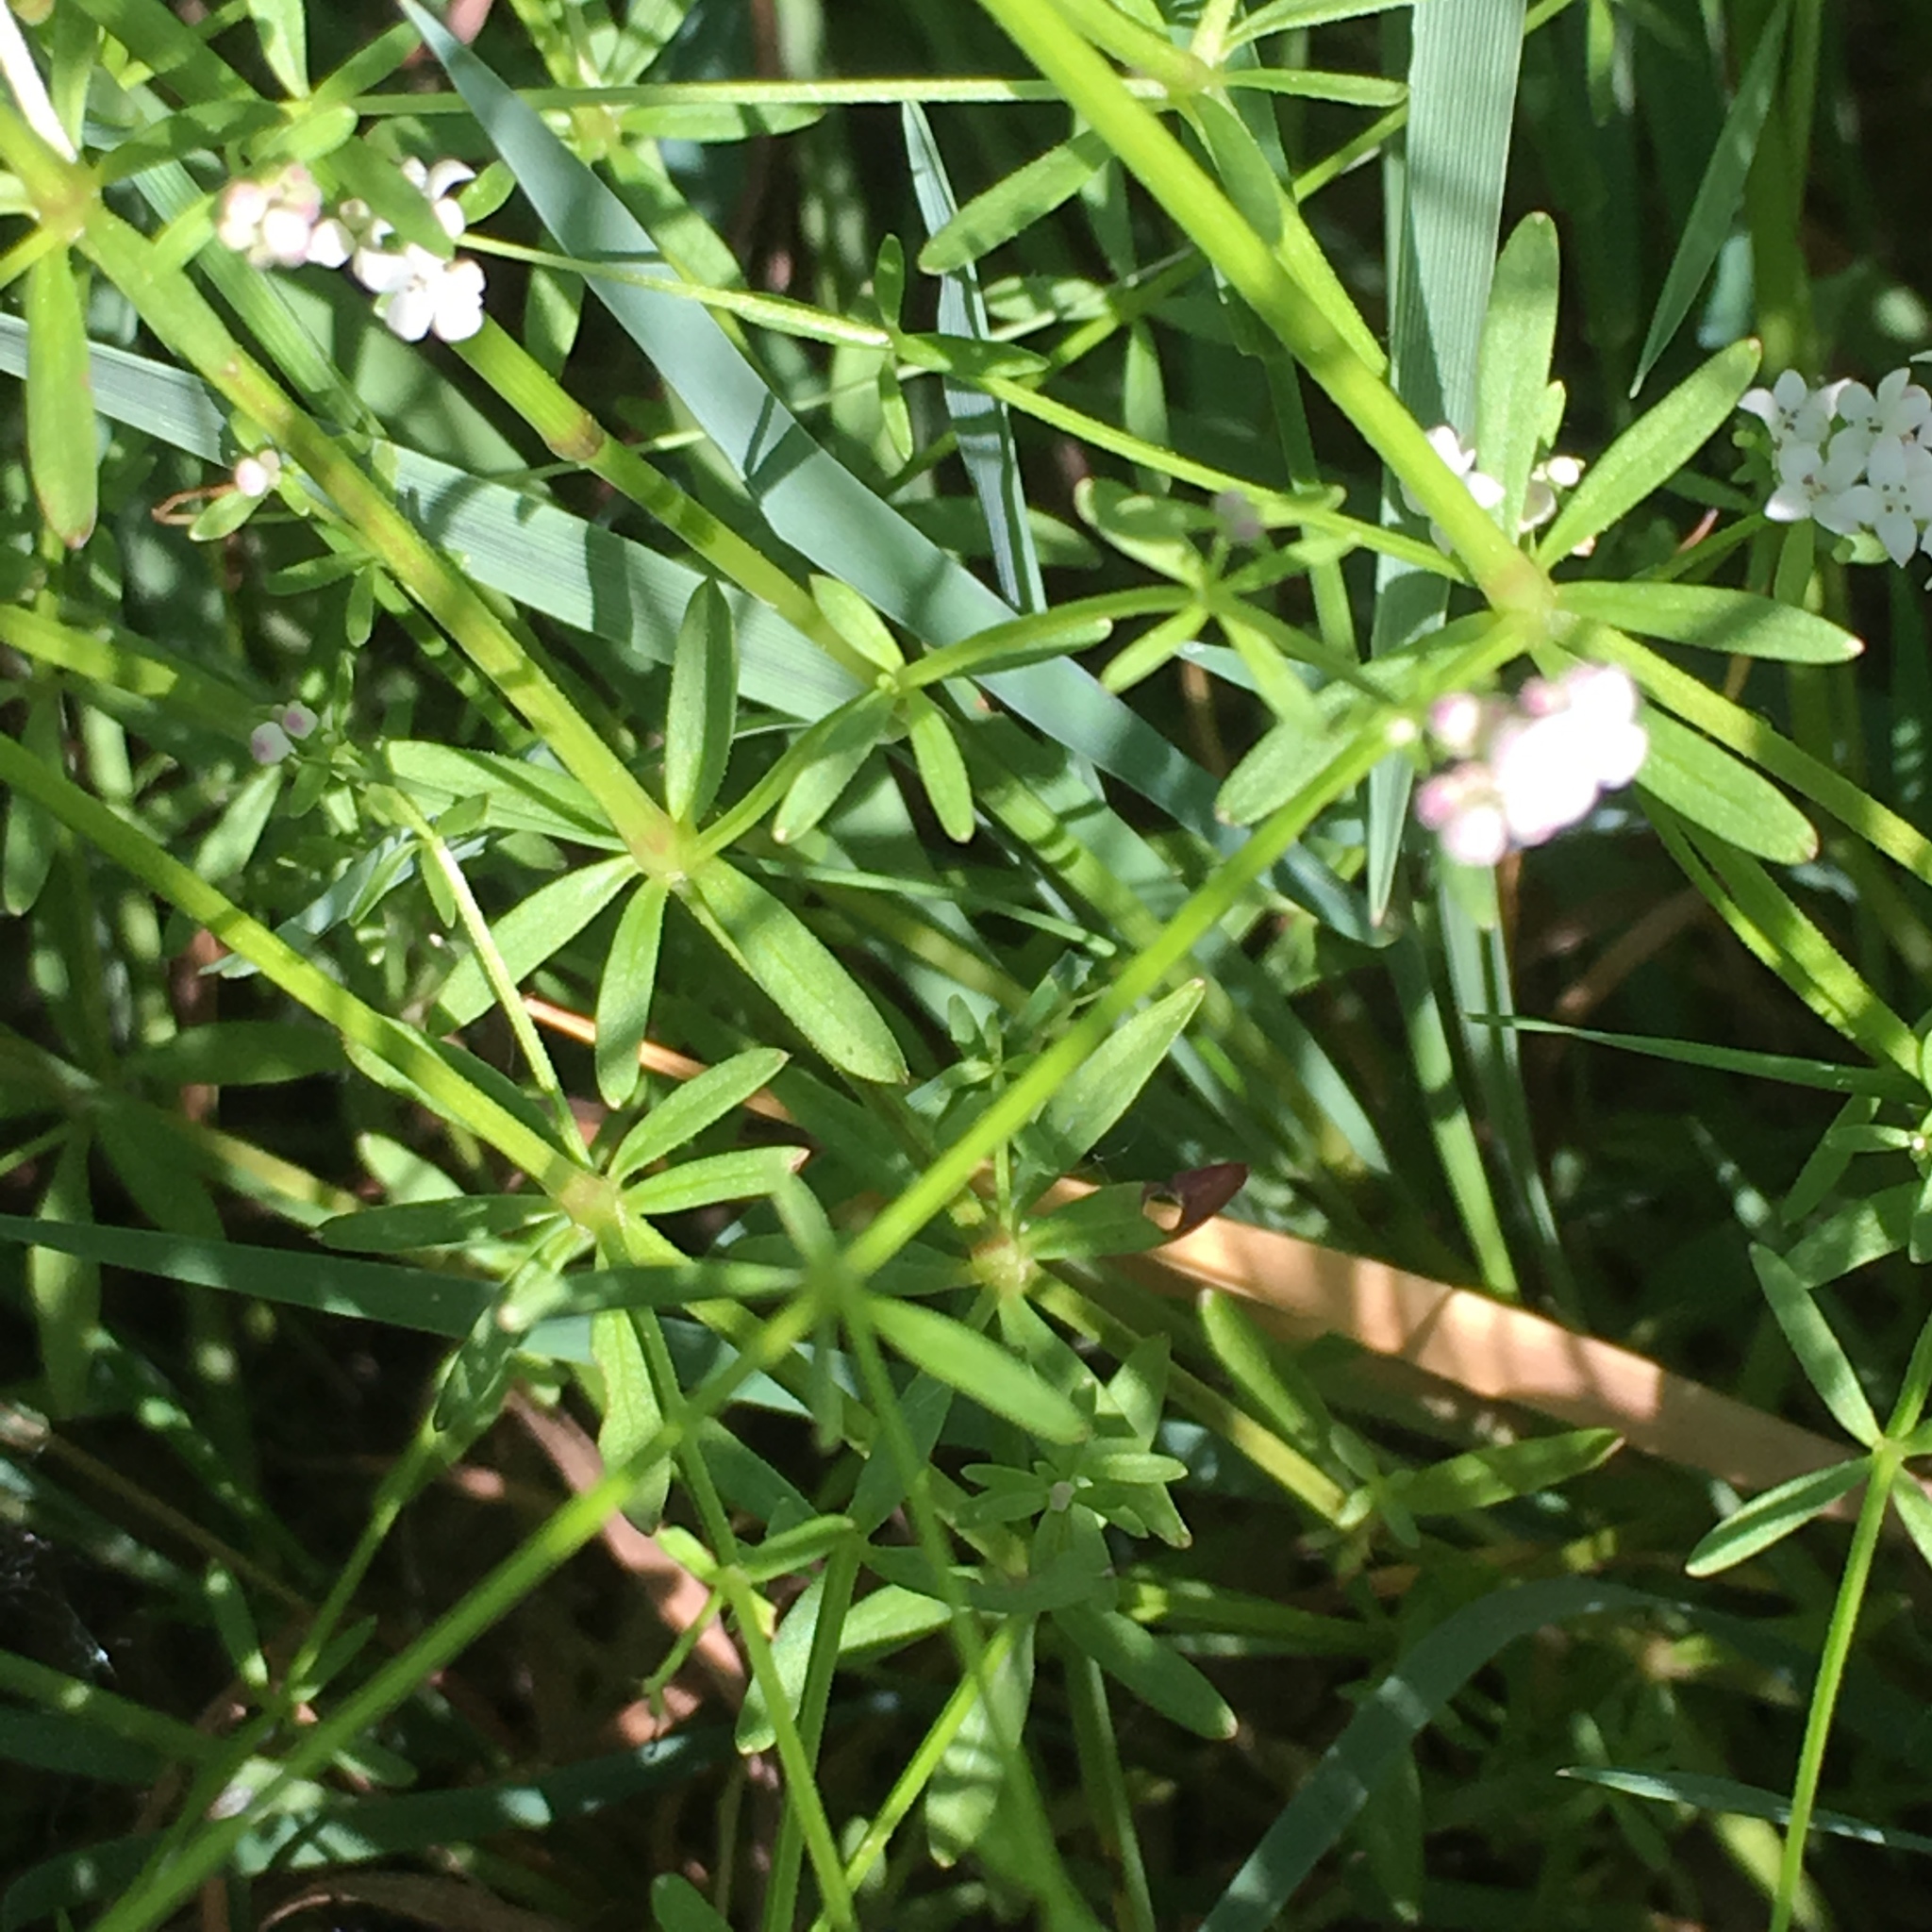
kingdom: Plantae
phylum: Tracheophyta
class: Magnoliopsida
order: Gentianales
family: Rubiaceae
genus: Galium
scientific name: Galium palustre
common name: Common marsh-bedstraw
